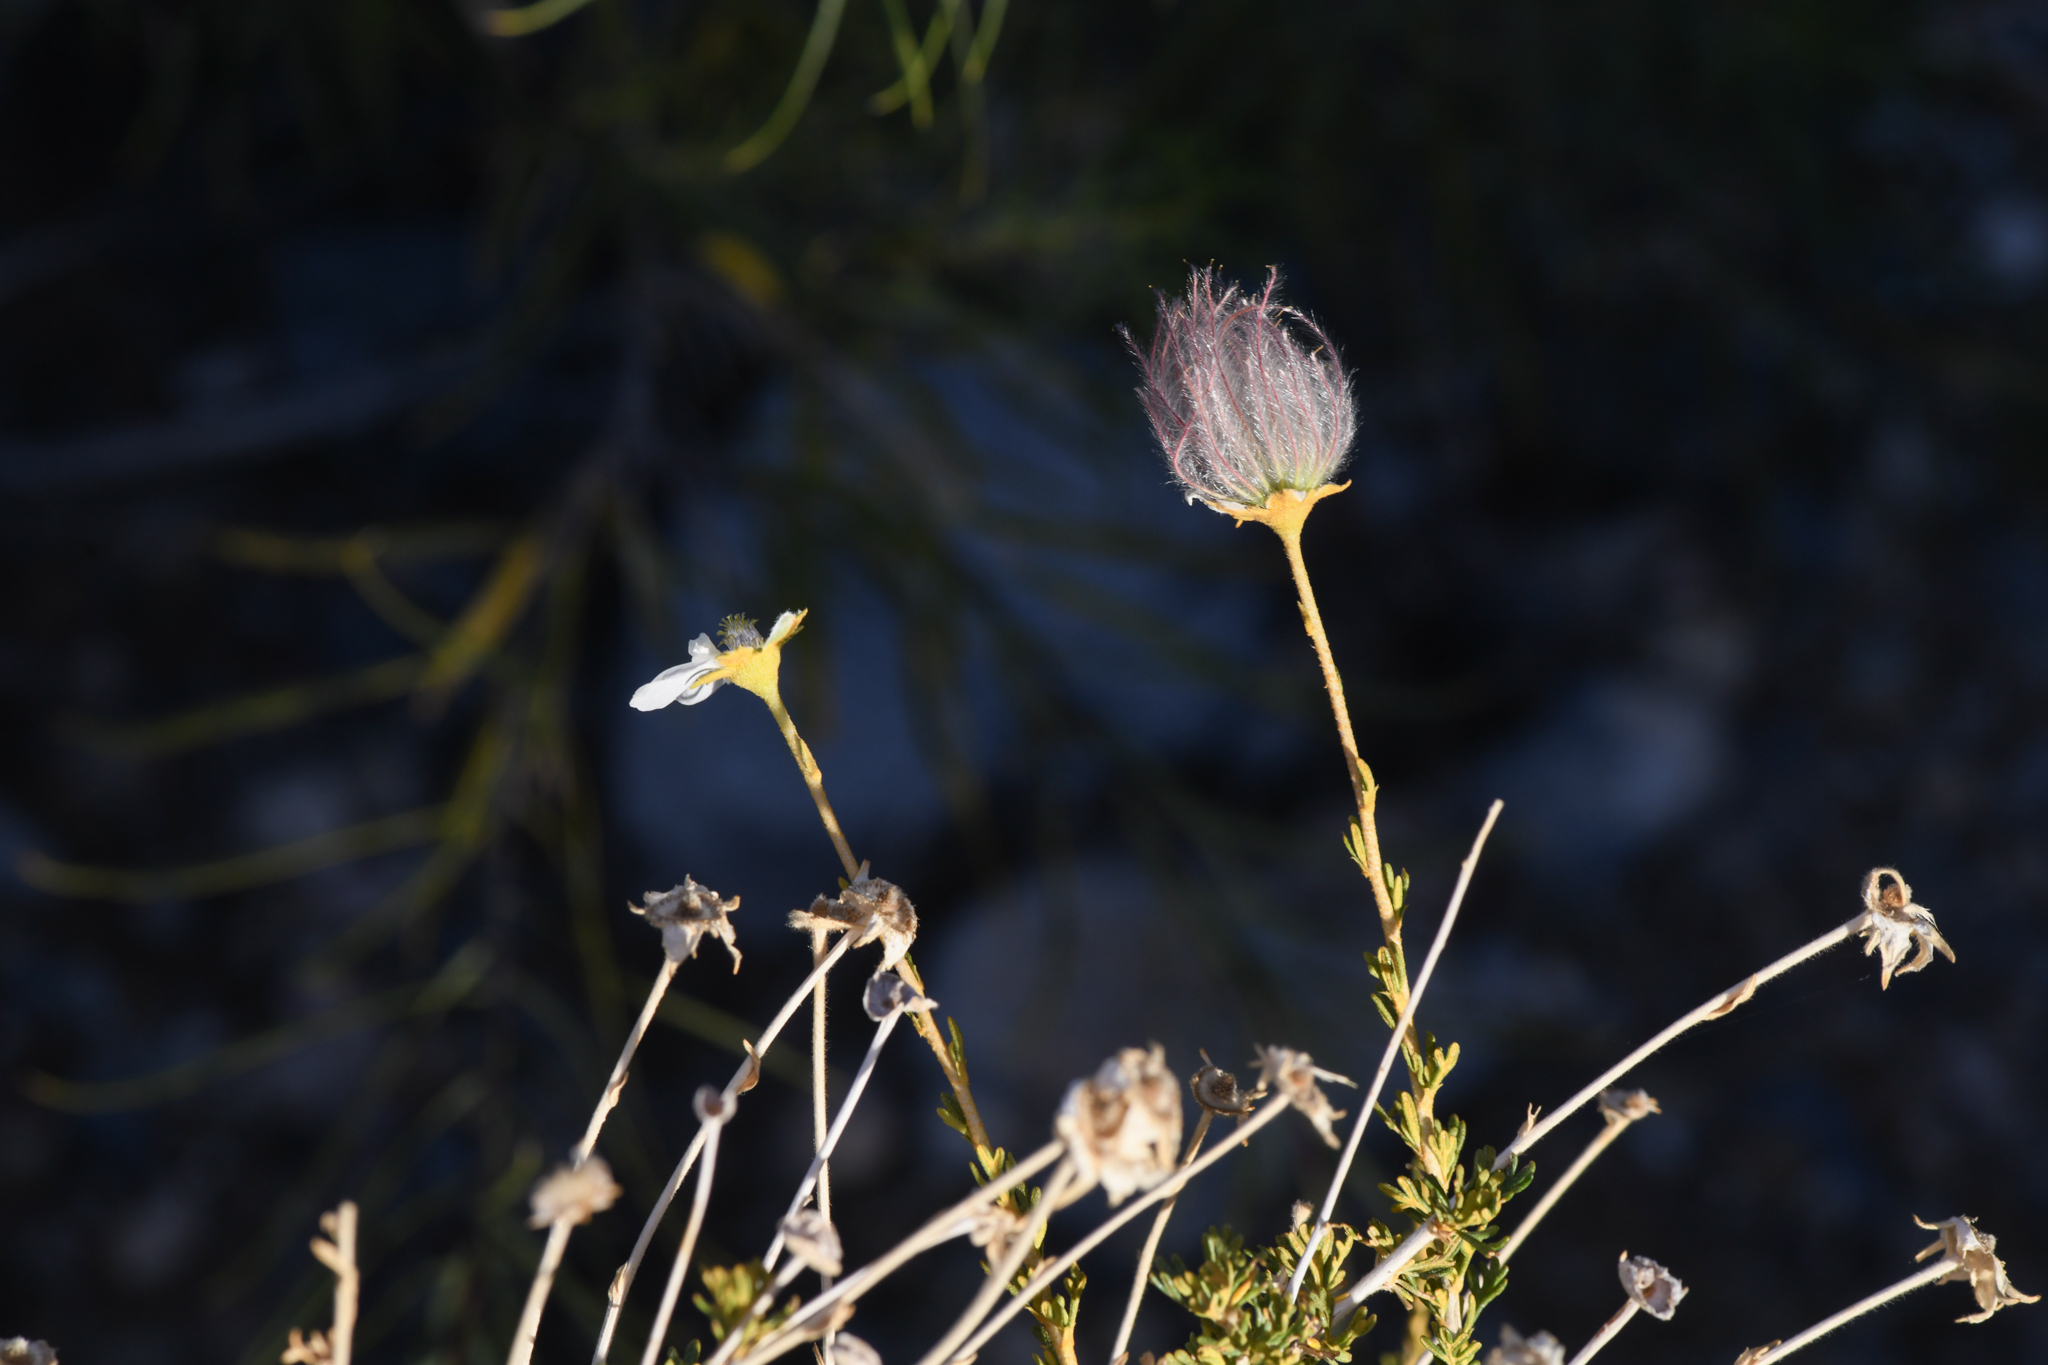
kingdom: Plantae
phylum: Tracheophyta
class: Magnoliopsida
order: Rosales
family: Rosaceae
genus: Fallugia
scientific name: Fallugia paradoxa
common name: Apache-plume
